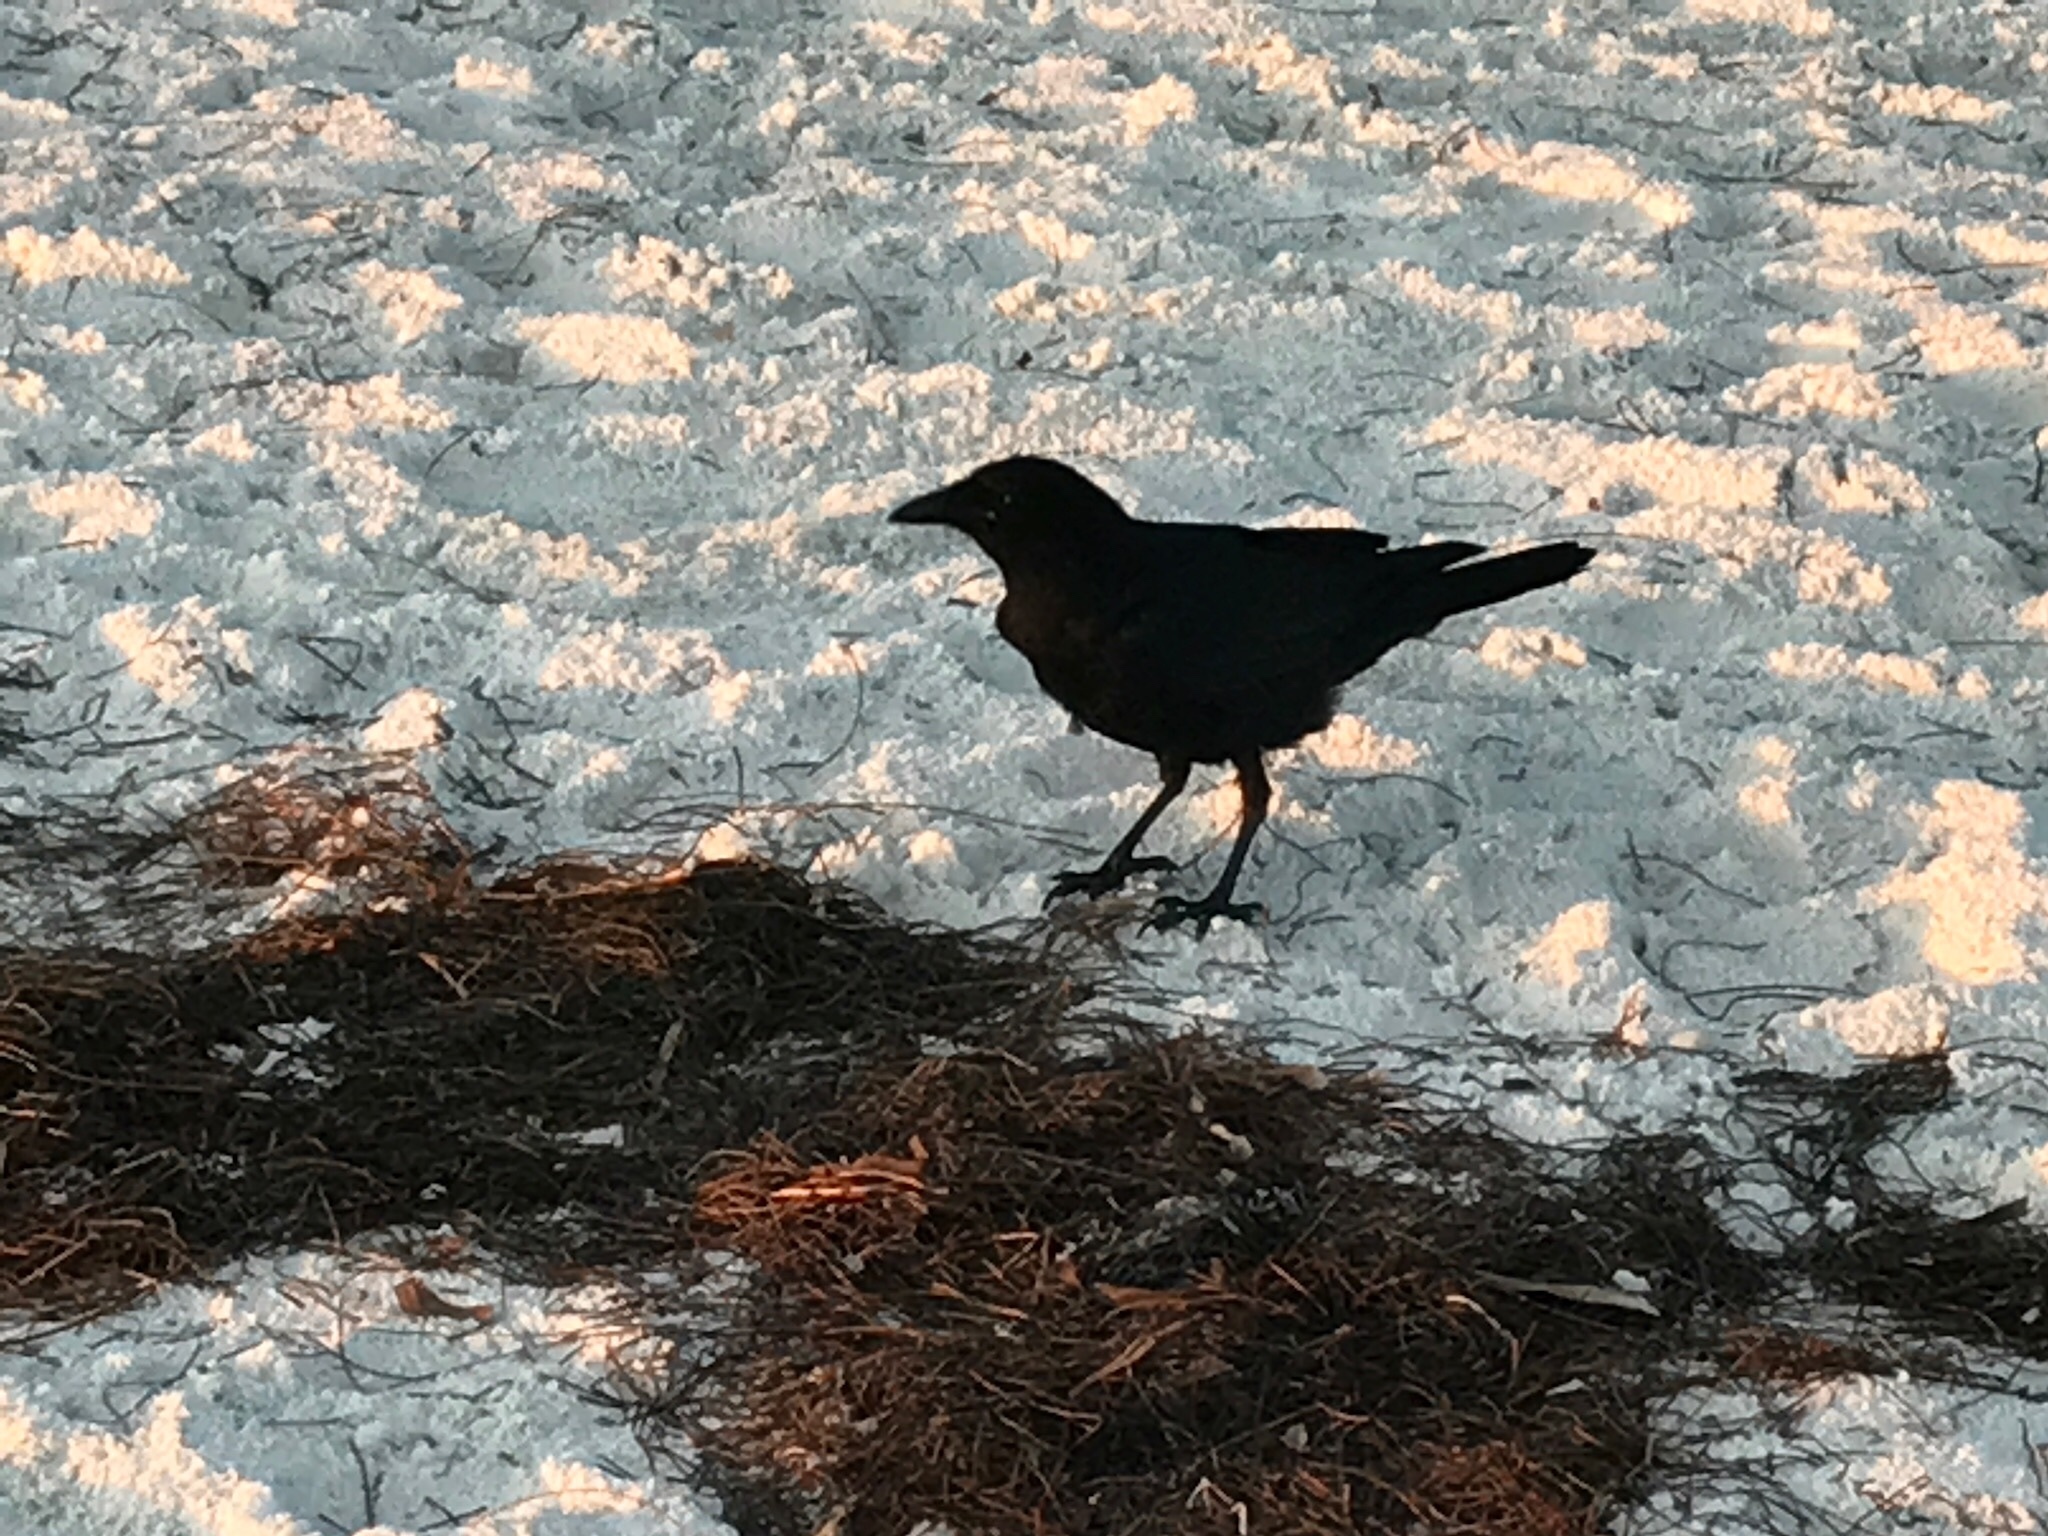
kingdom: Animalia
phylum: Chordata
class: Aves
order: Passeriformes
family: Corvidae
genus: Corvus
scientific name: Corvus
